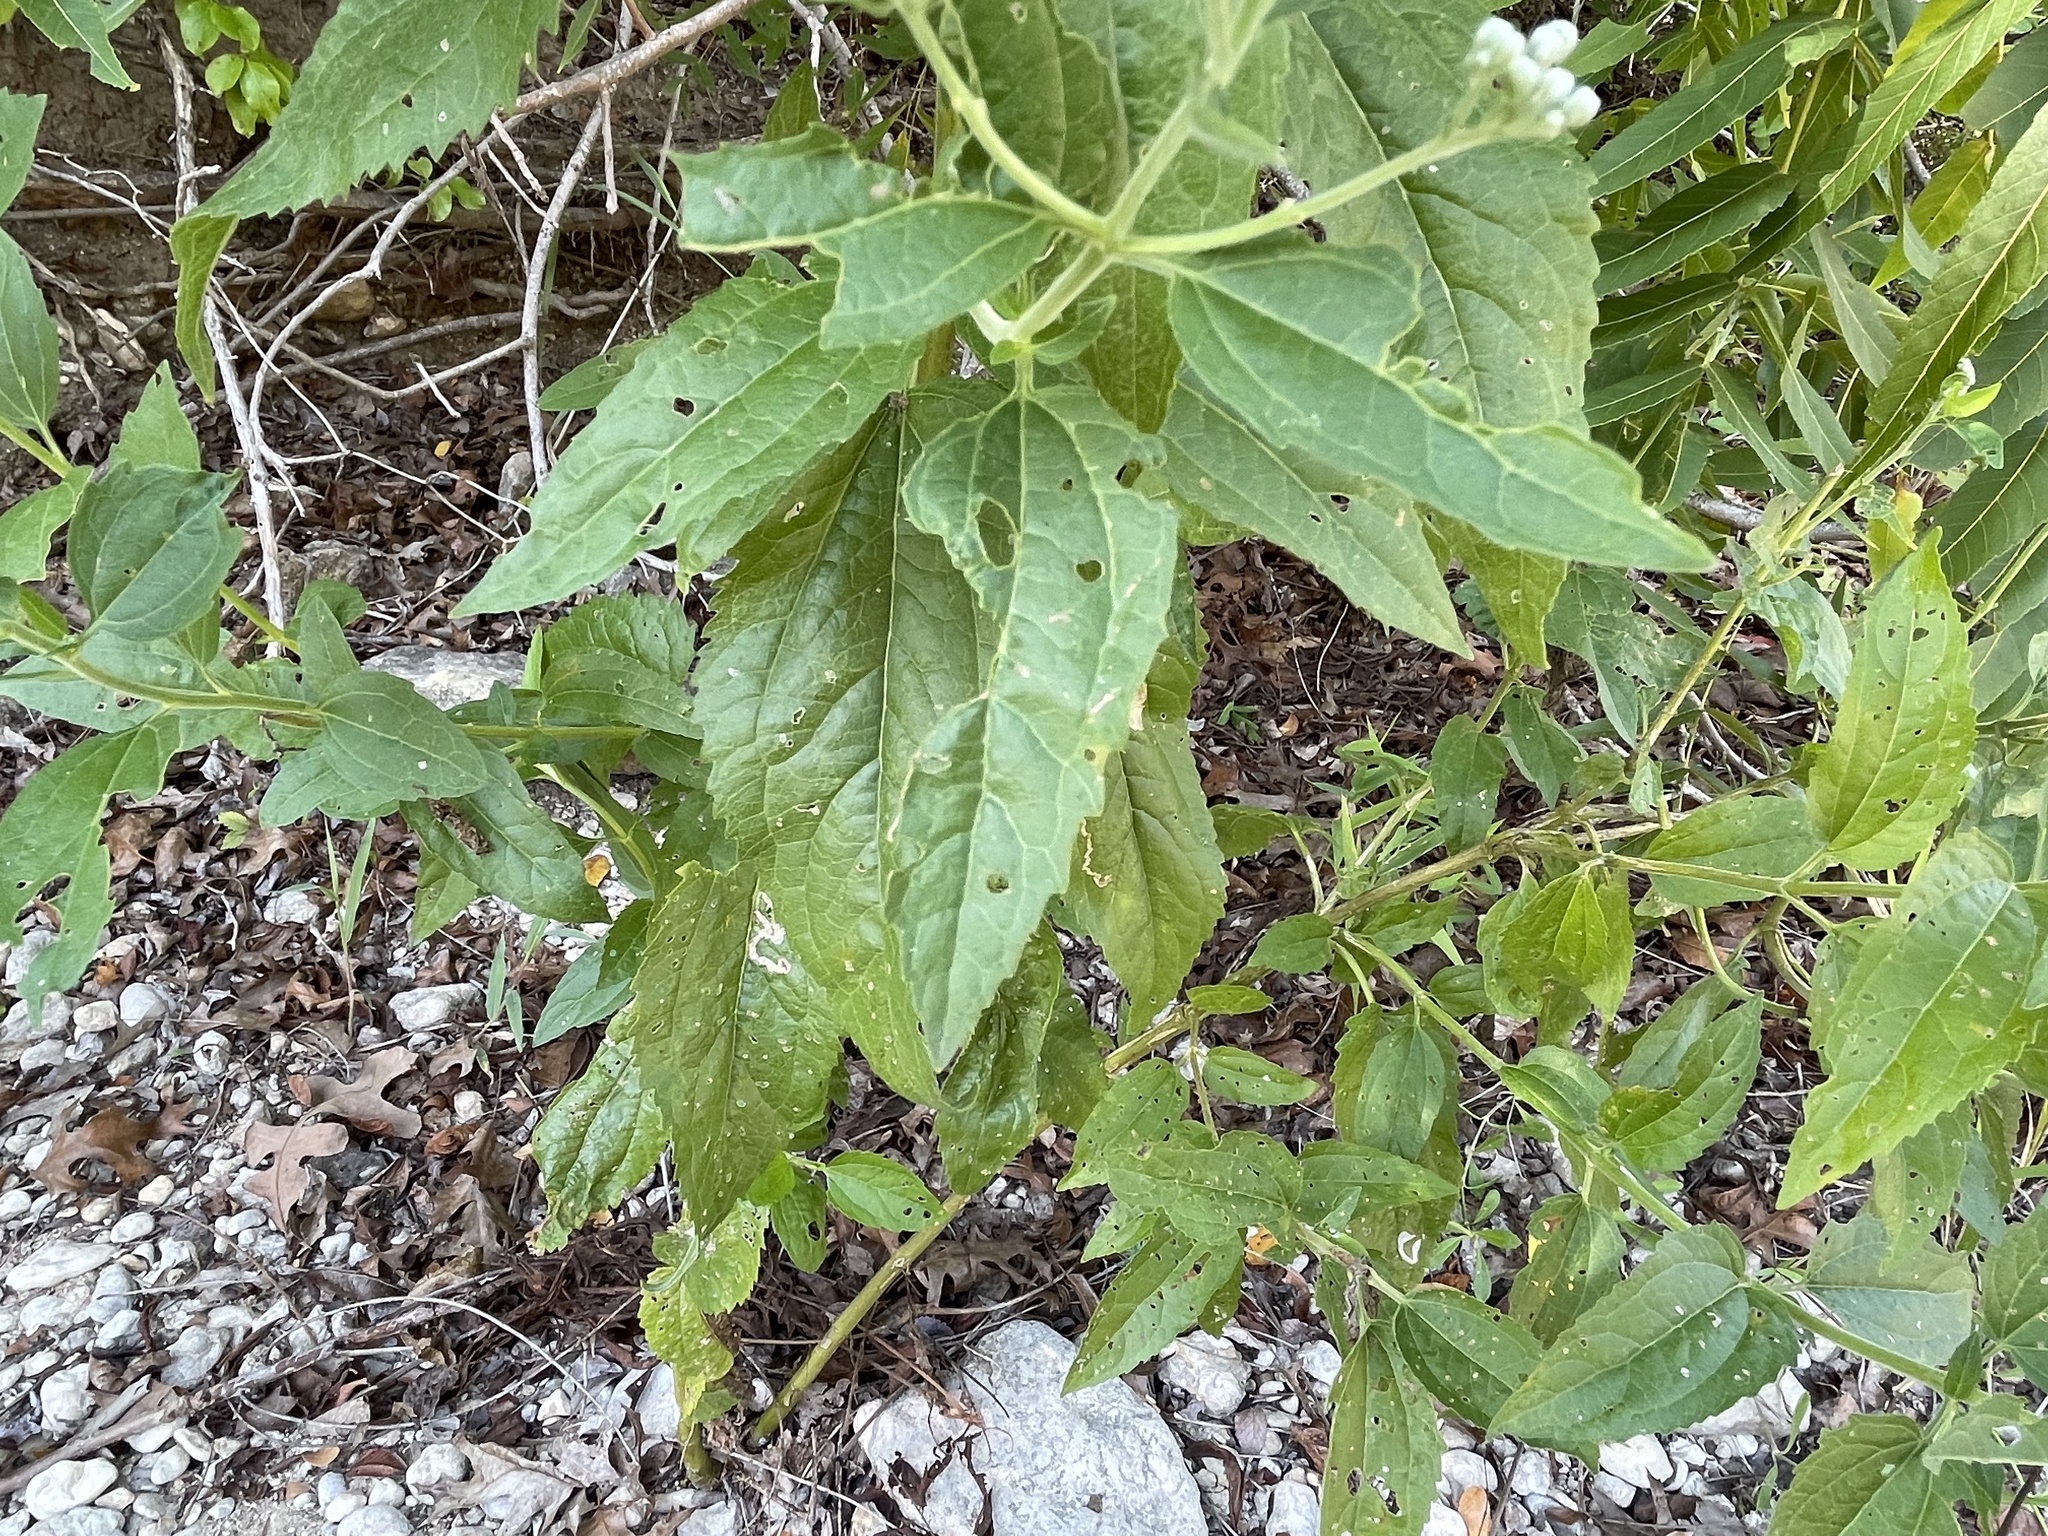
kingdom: Plantae
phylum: Tracheophyta
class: Magnoliopsida
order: Asterales
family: Asteraceae
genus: Eupatorium
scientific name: Eupatorium serotinum
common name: Late boneset
